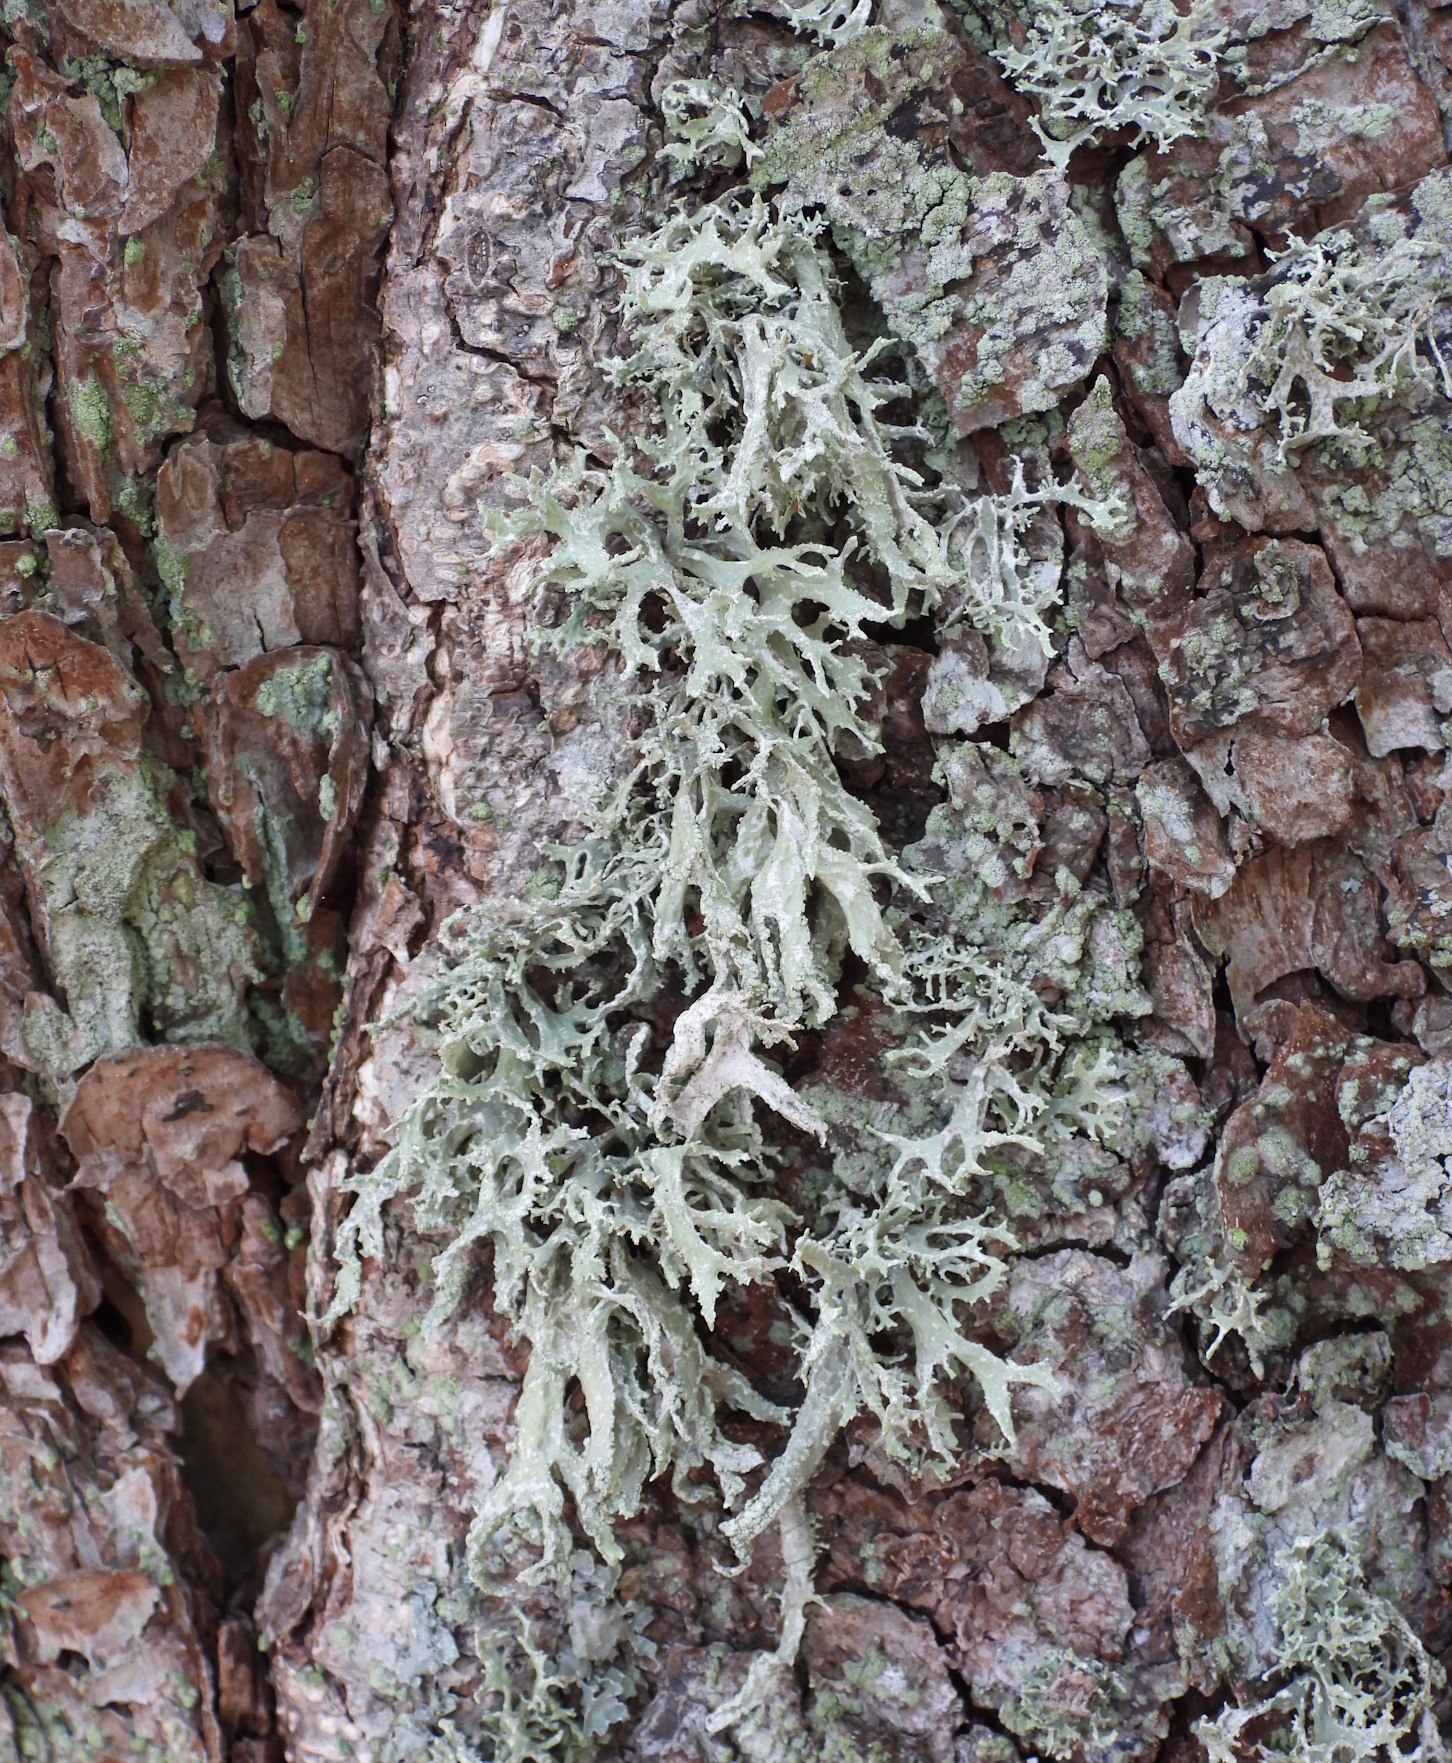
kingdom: Fungi
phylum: Ascomycota
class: Lecanoromycetes
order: Lecanorales
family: Parmeliaceae
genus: Evernia
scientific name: Evernia prunastri
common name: Oak moss
